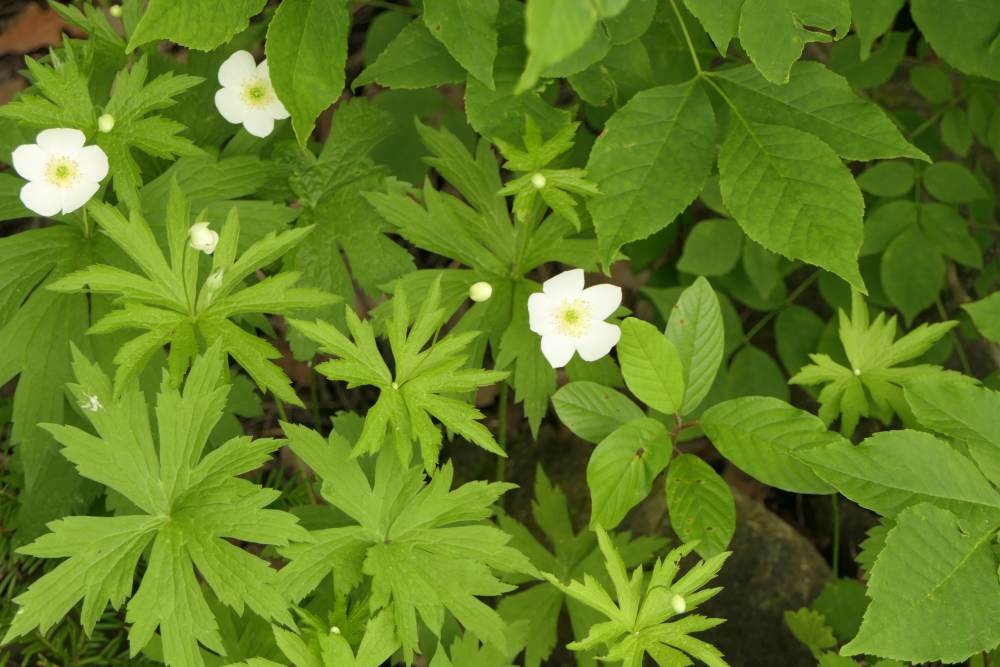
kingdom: Plantae
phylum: Tracheophyta
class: Magnoliopsida
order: Ranunculales
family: Ranunculaceae
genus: Anemonastrum
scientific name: Anemonastrum canadense
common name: Canada anemone
